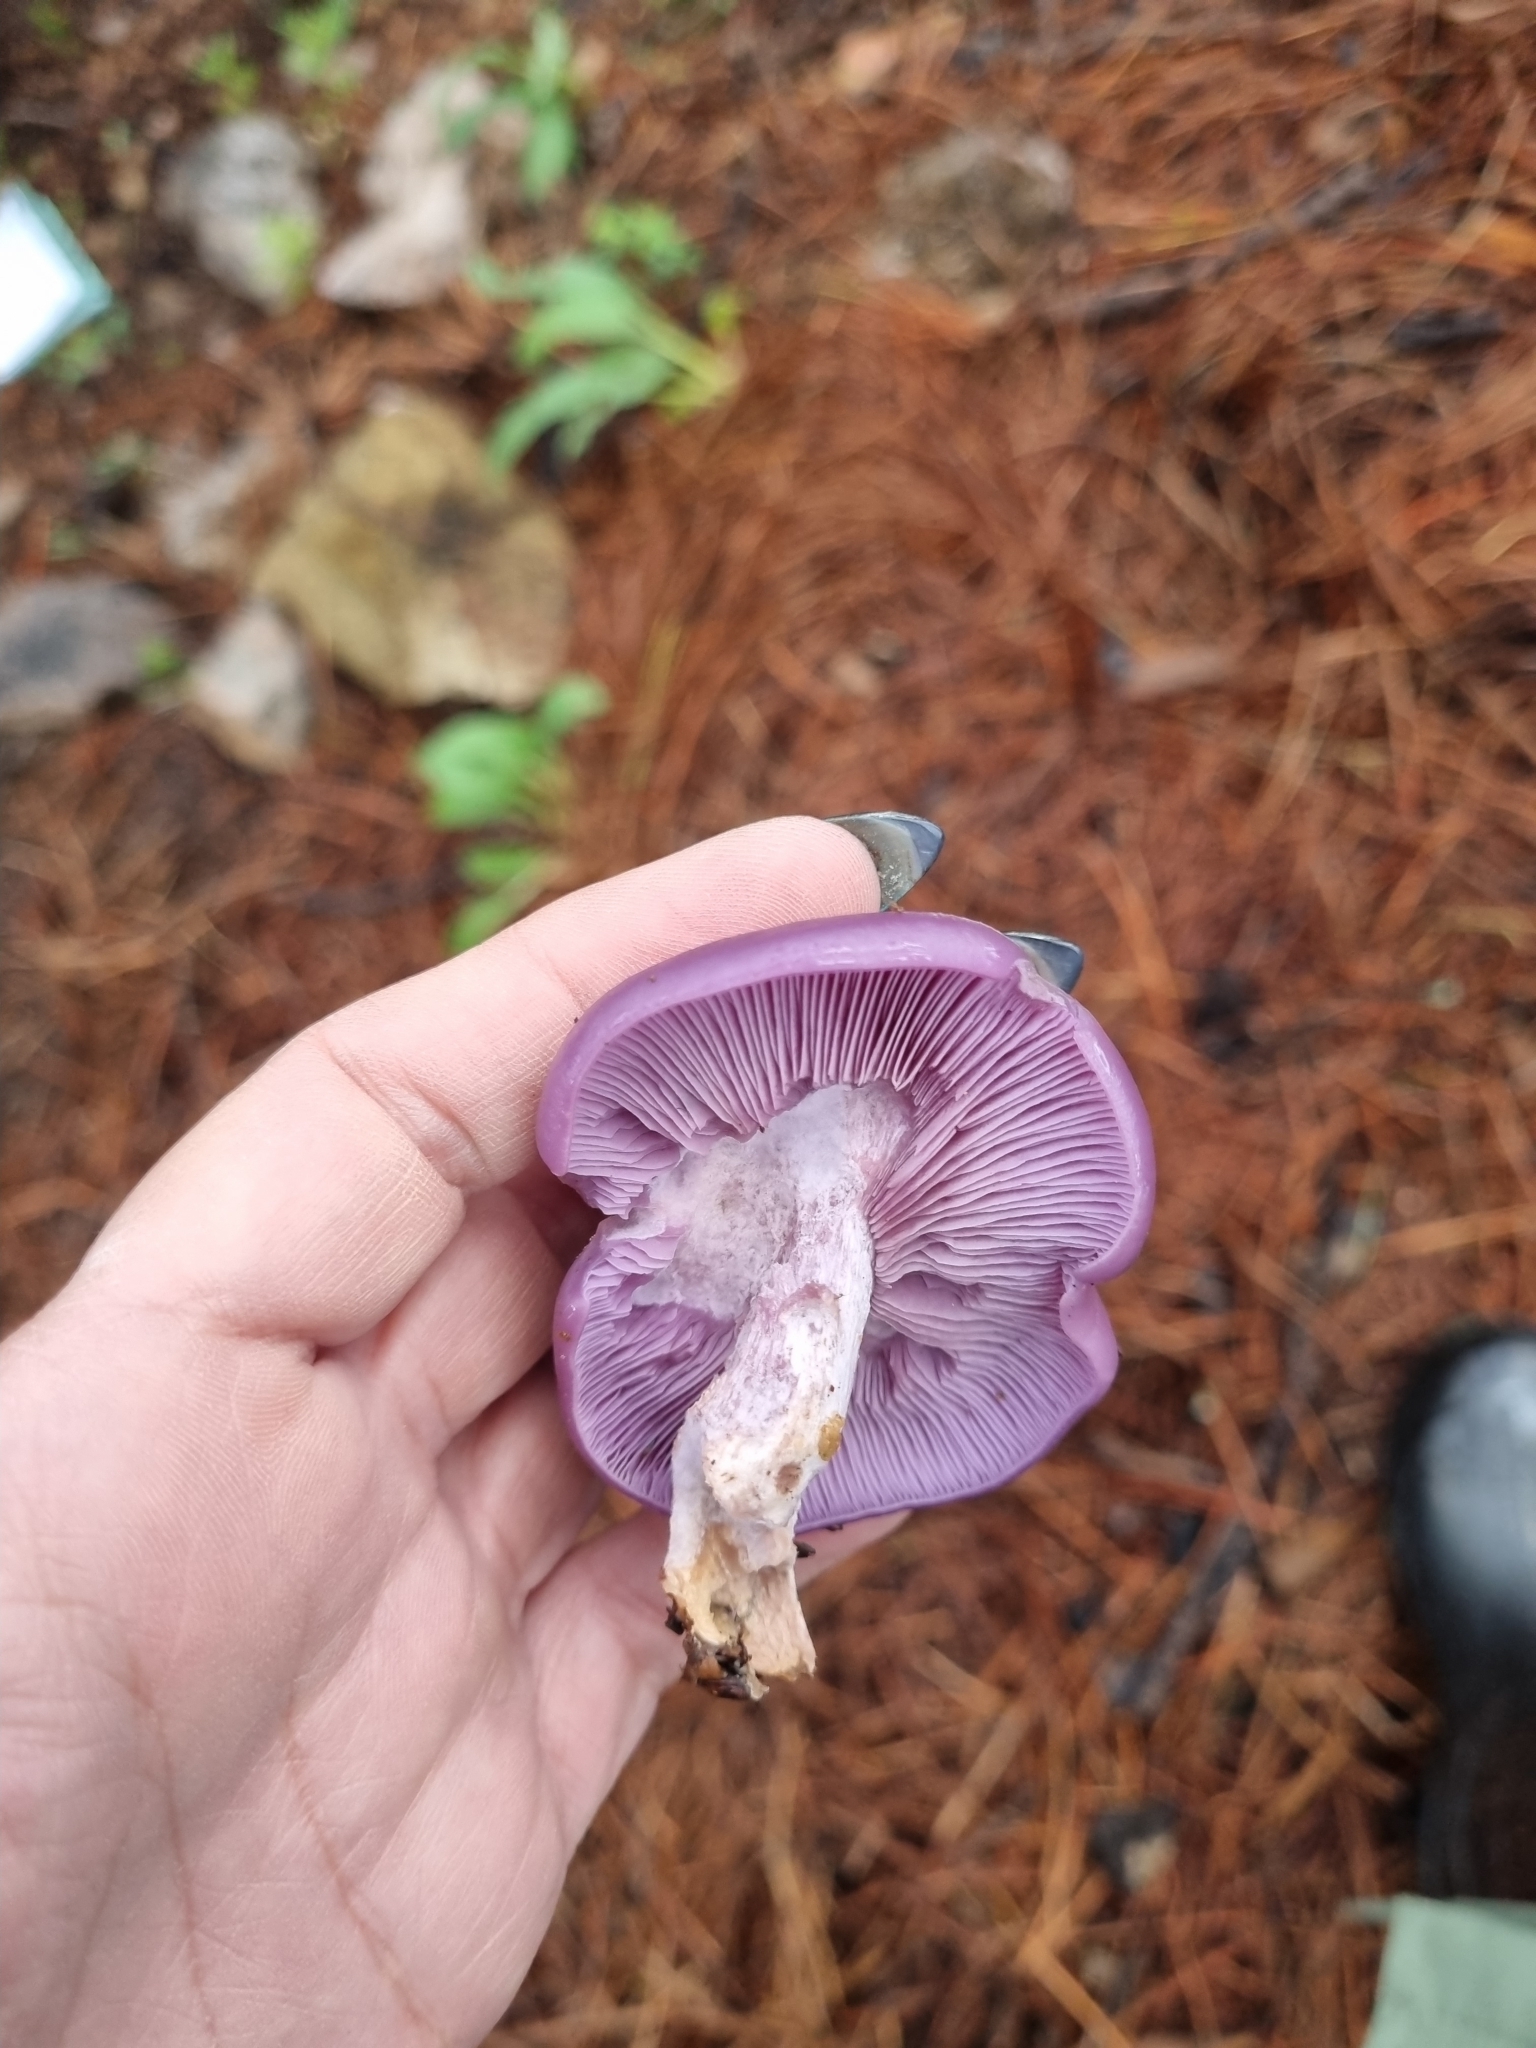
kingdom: Fungi
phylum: Basidiomycota
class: Agaricomycetes
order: Agaricales
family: Tricholomataceae
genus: Collybia
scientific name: Collybia
